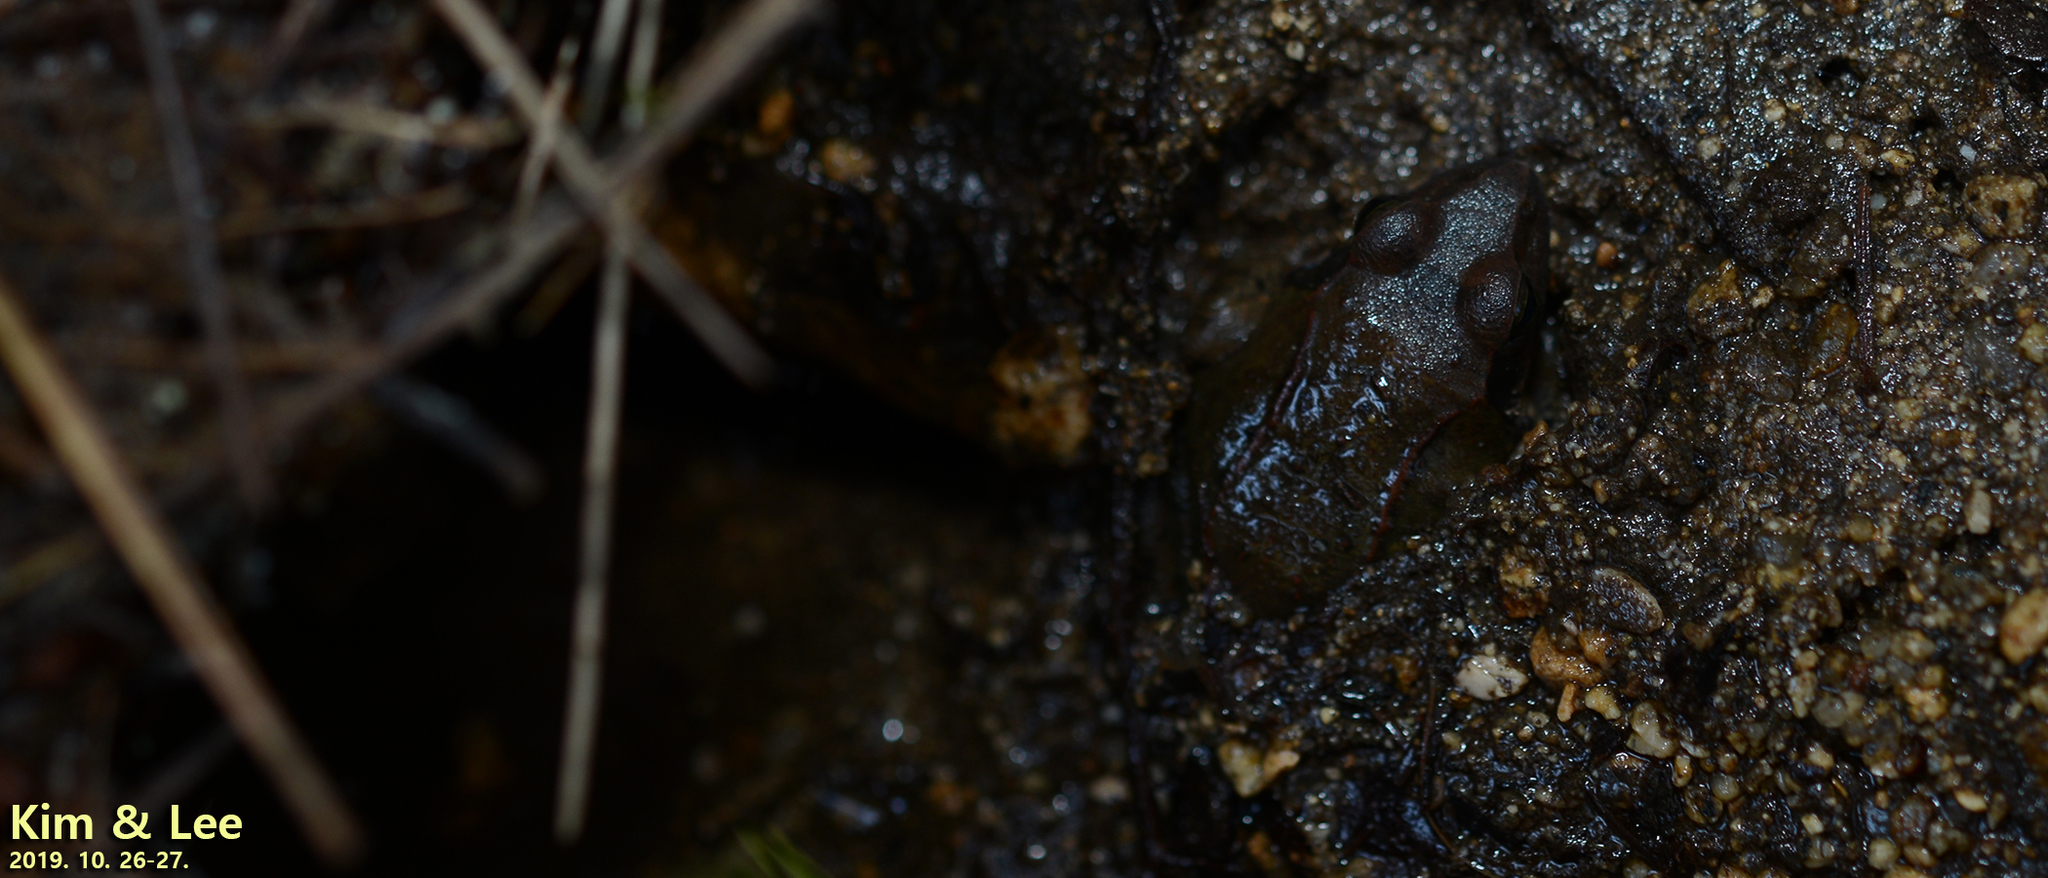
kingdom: Animalia
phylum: Chordata
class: Amphibia
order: Anura
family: Ranidae
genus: Rana
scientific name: Rana huanrenensis
